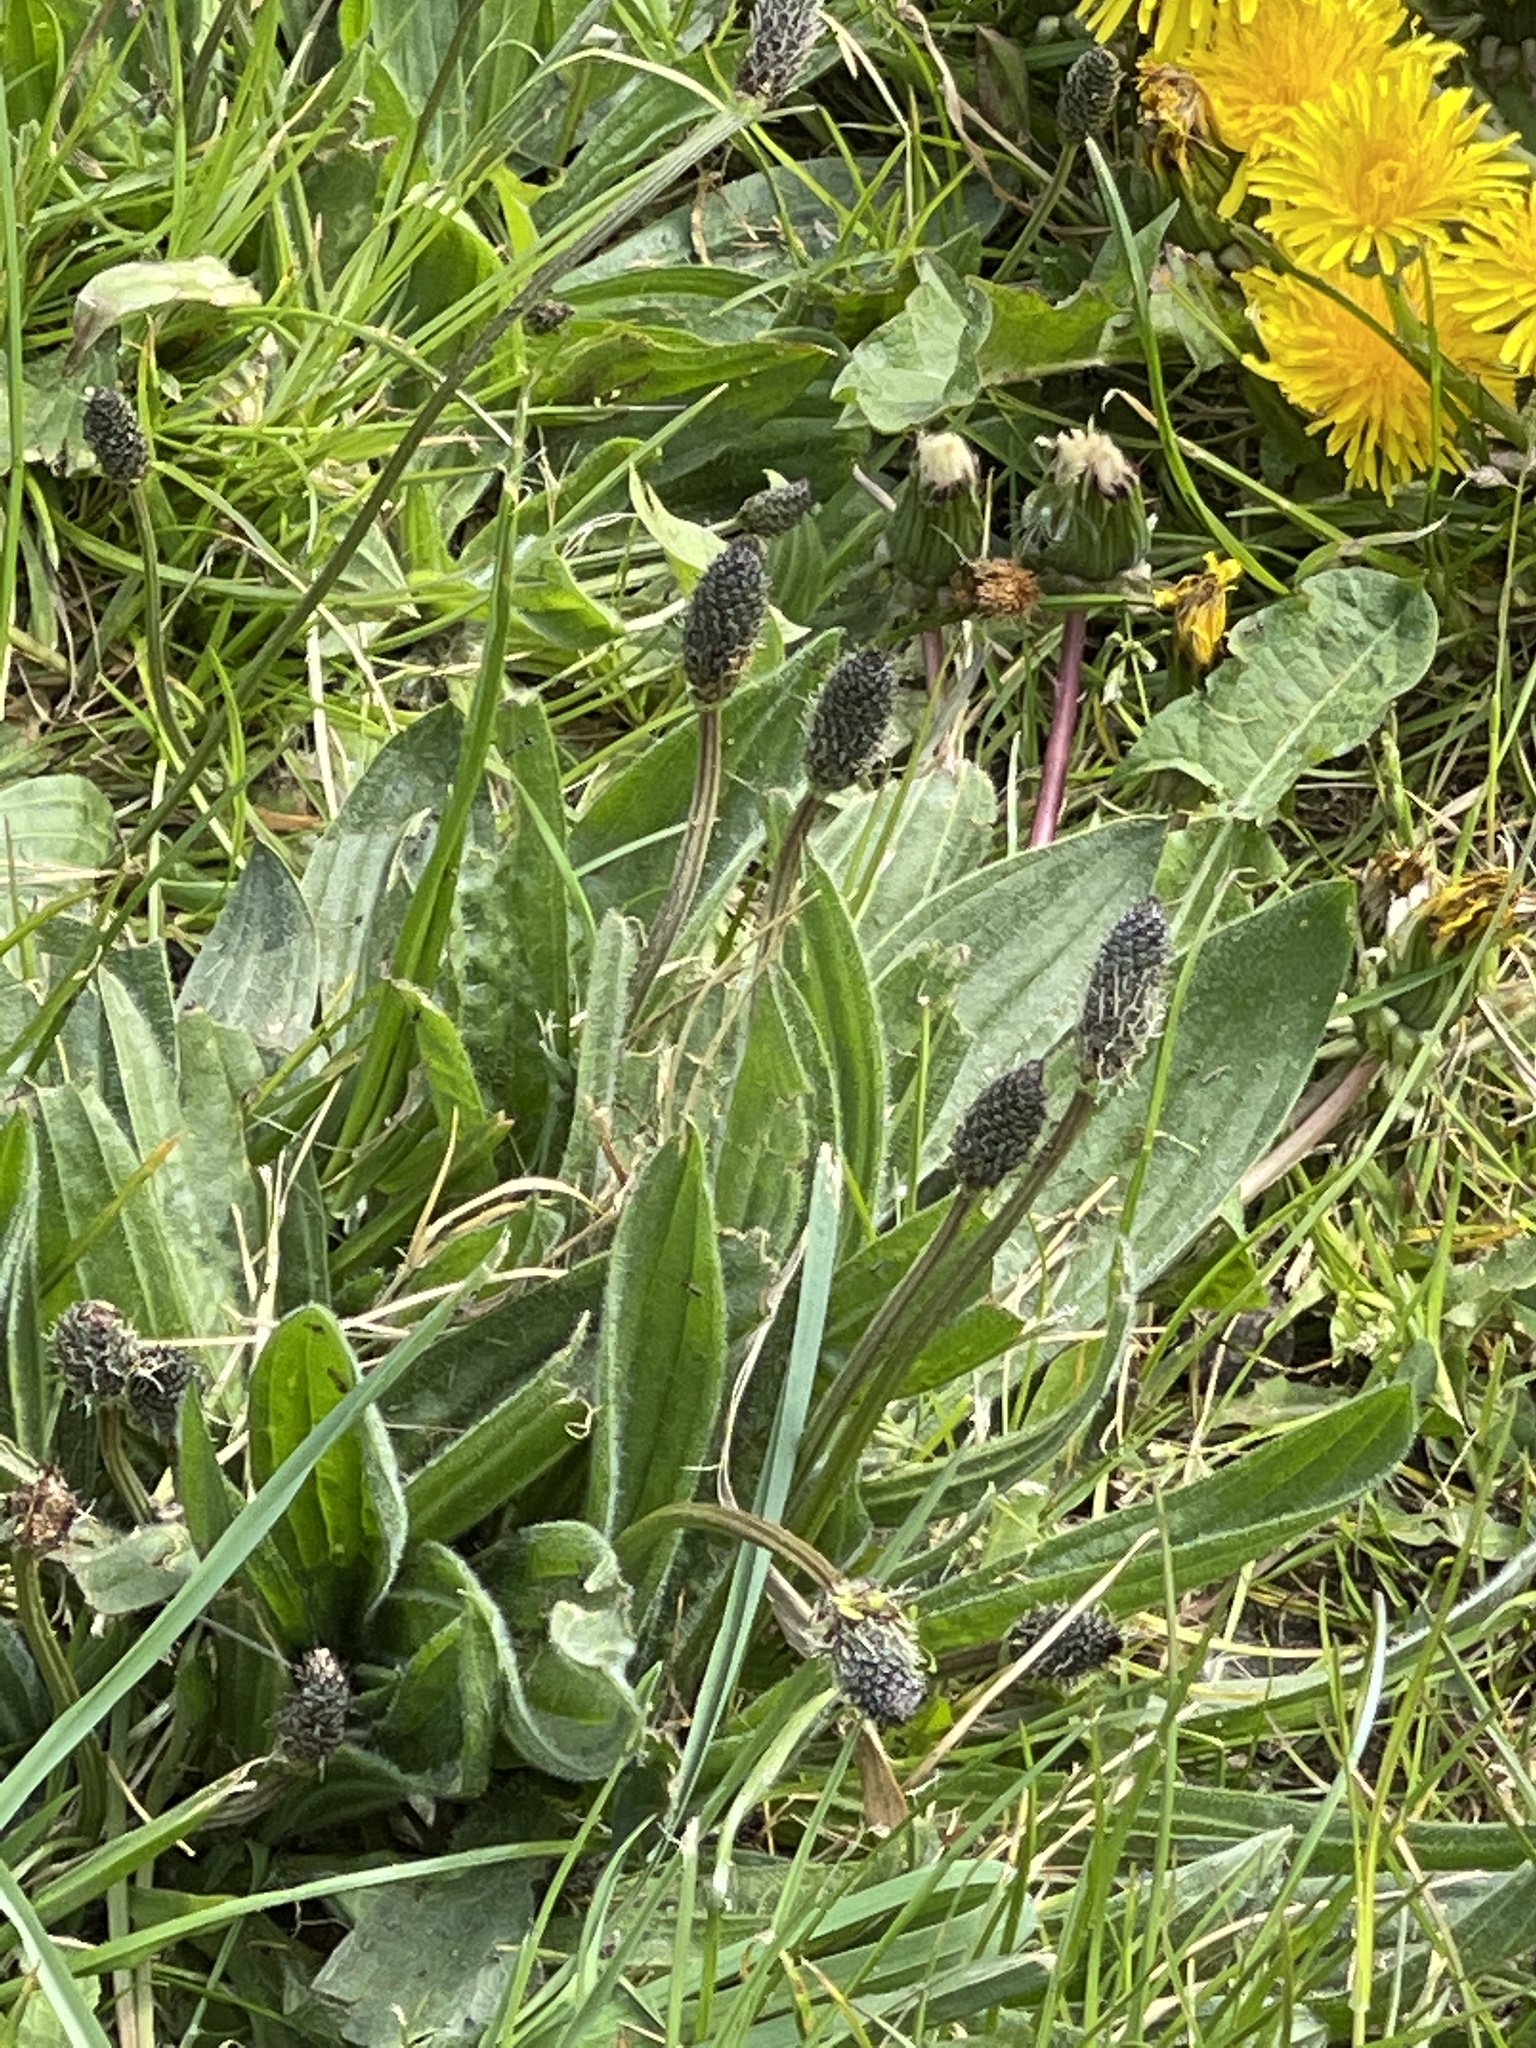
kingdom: Plantae
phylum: Tracheophyta
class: Magnoliopsida
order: Lamiales
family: Plantaginaceae
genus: Plantago
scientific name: Plantago lanceolata
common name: Ribwort plantain
